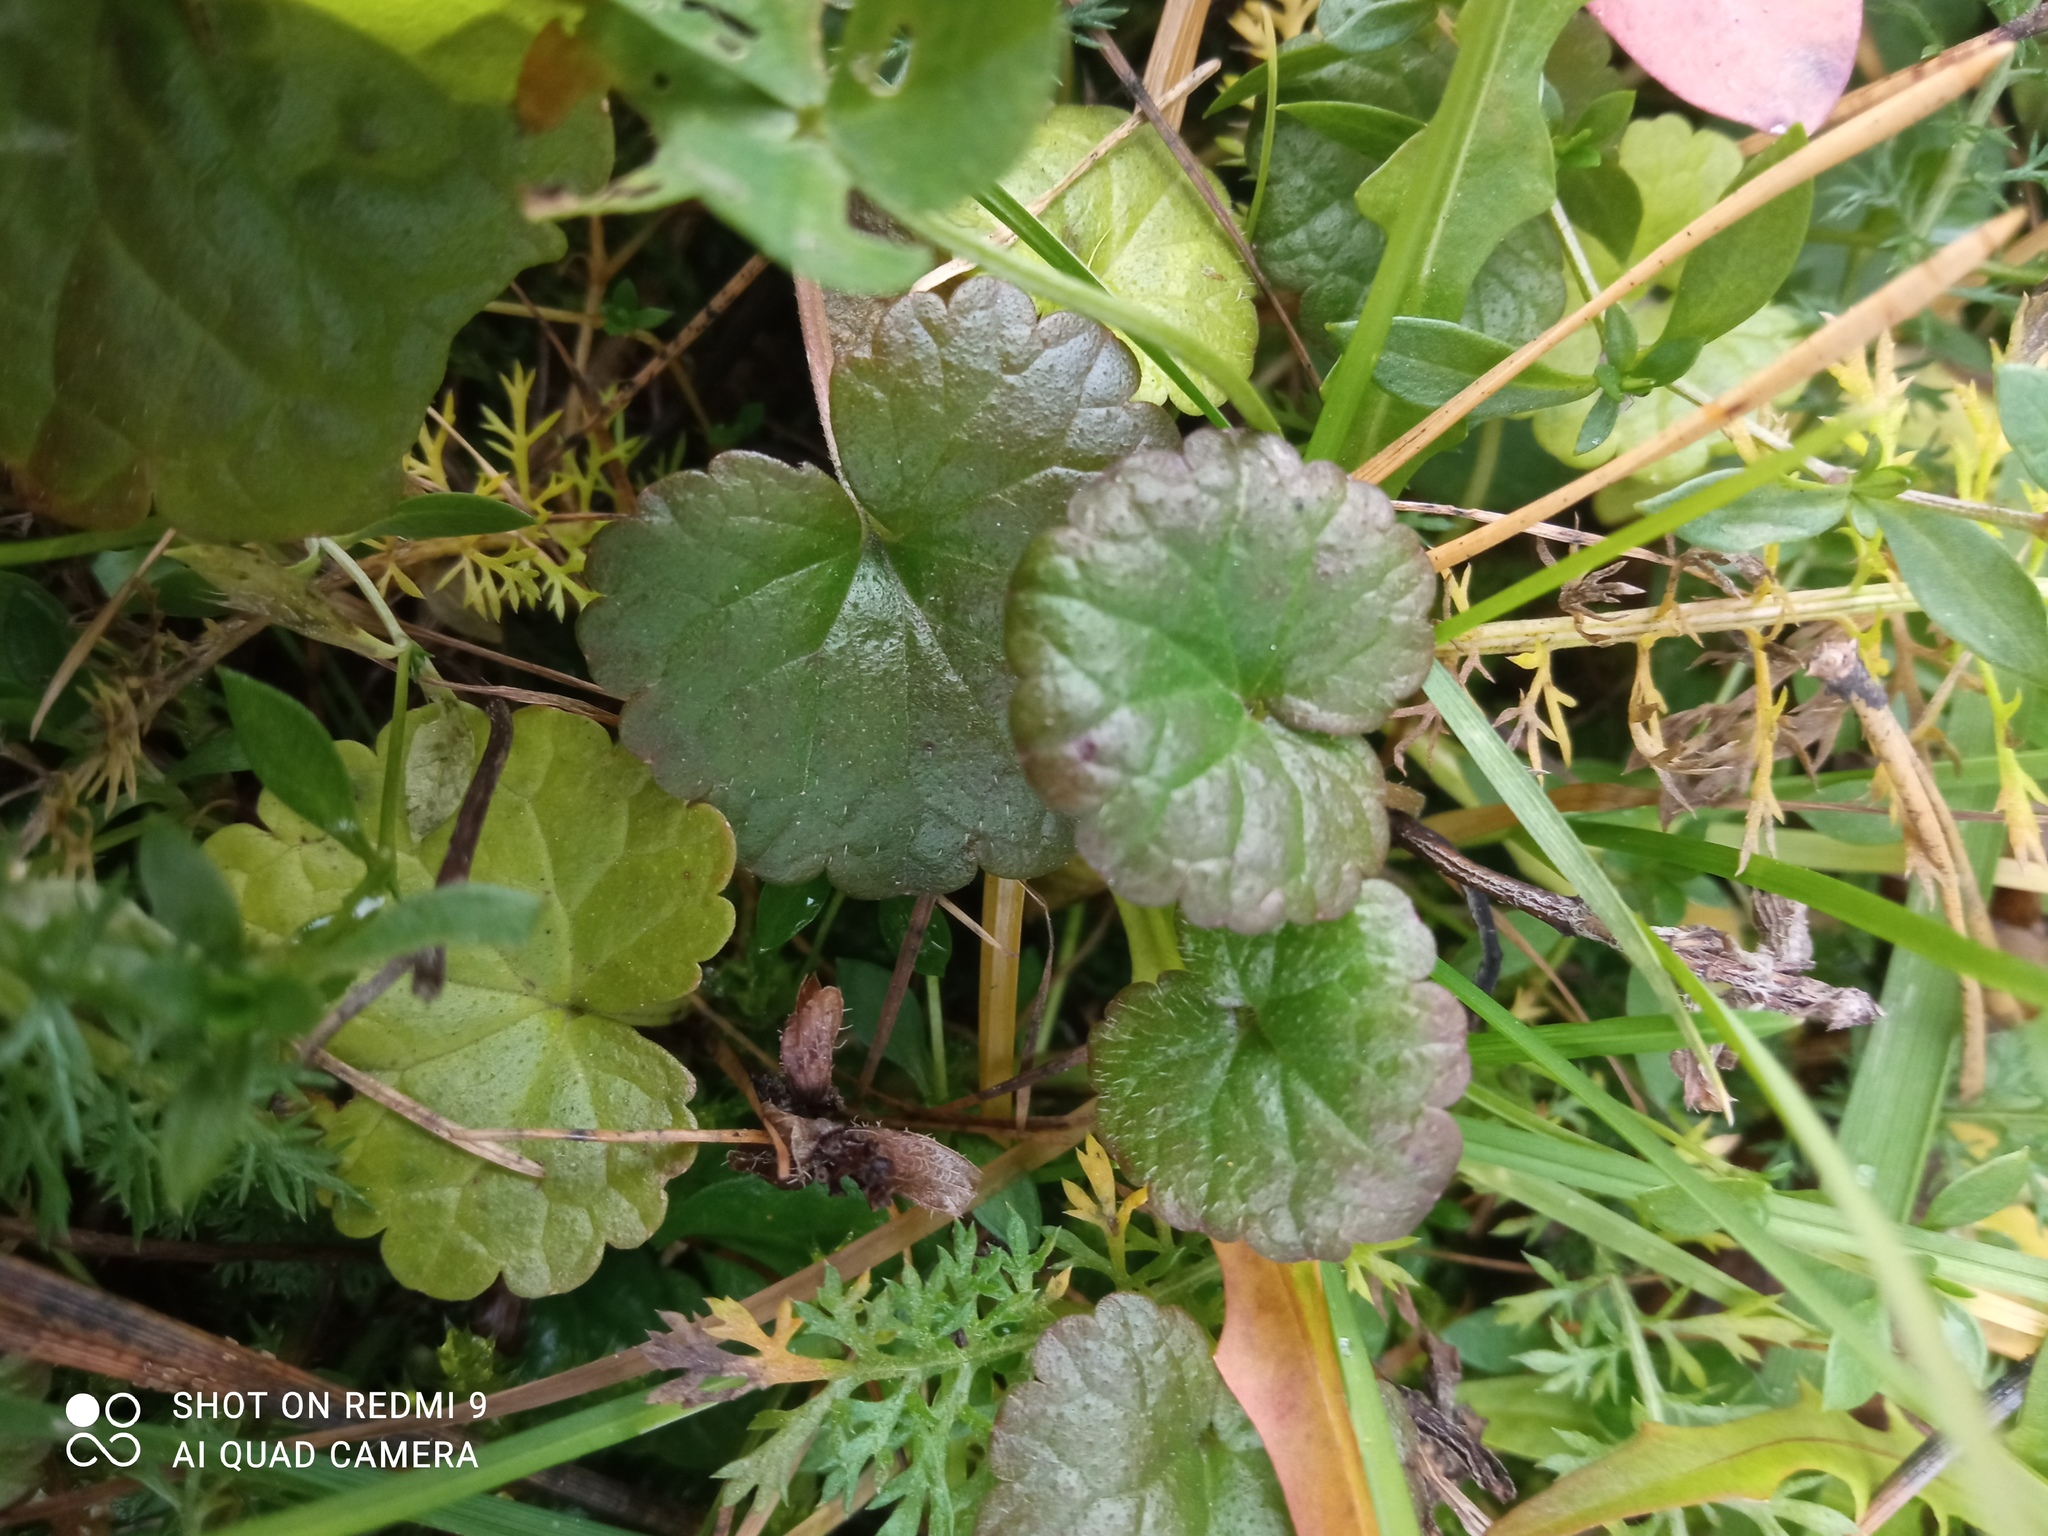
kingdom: Plantae
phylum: Tracheophyta
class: Magnoliopsida
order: Lamiales
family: Lamiaceae
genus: Glechoma
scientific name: Glechoma hederacea
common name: Ground ivy
